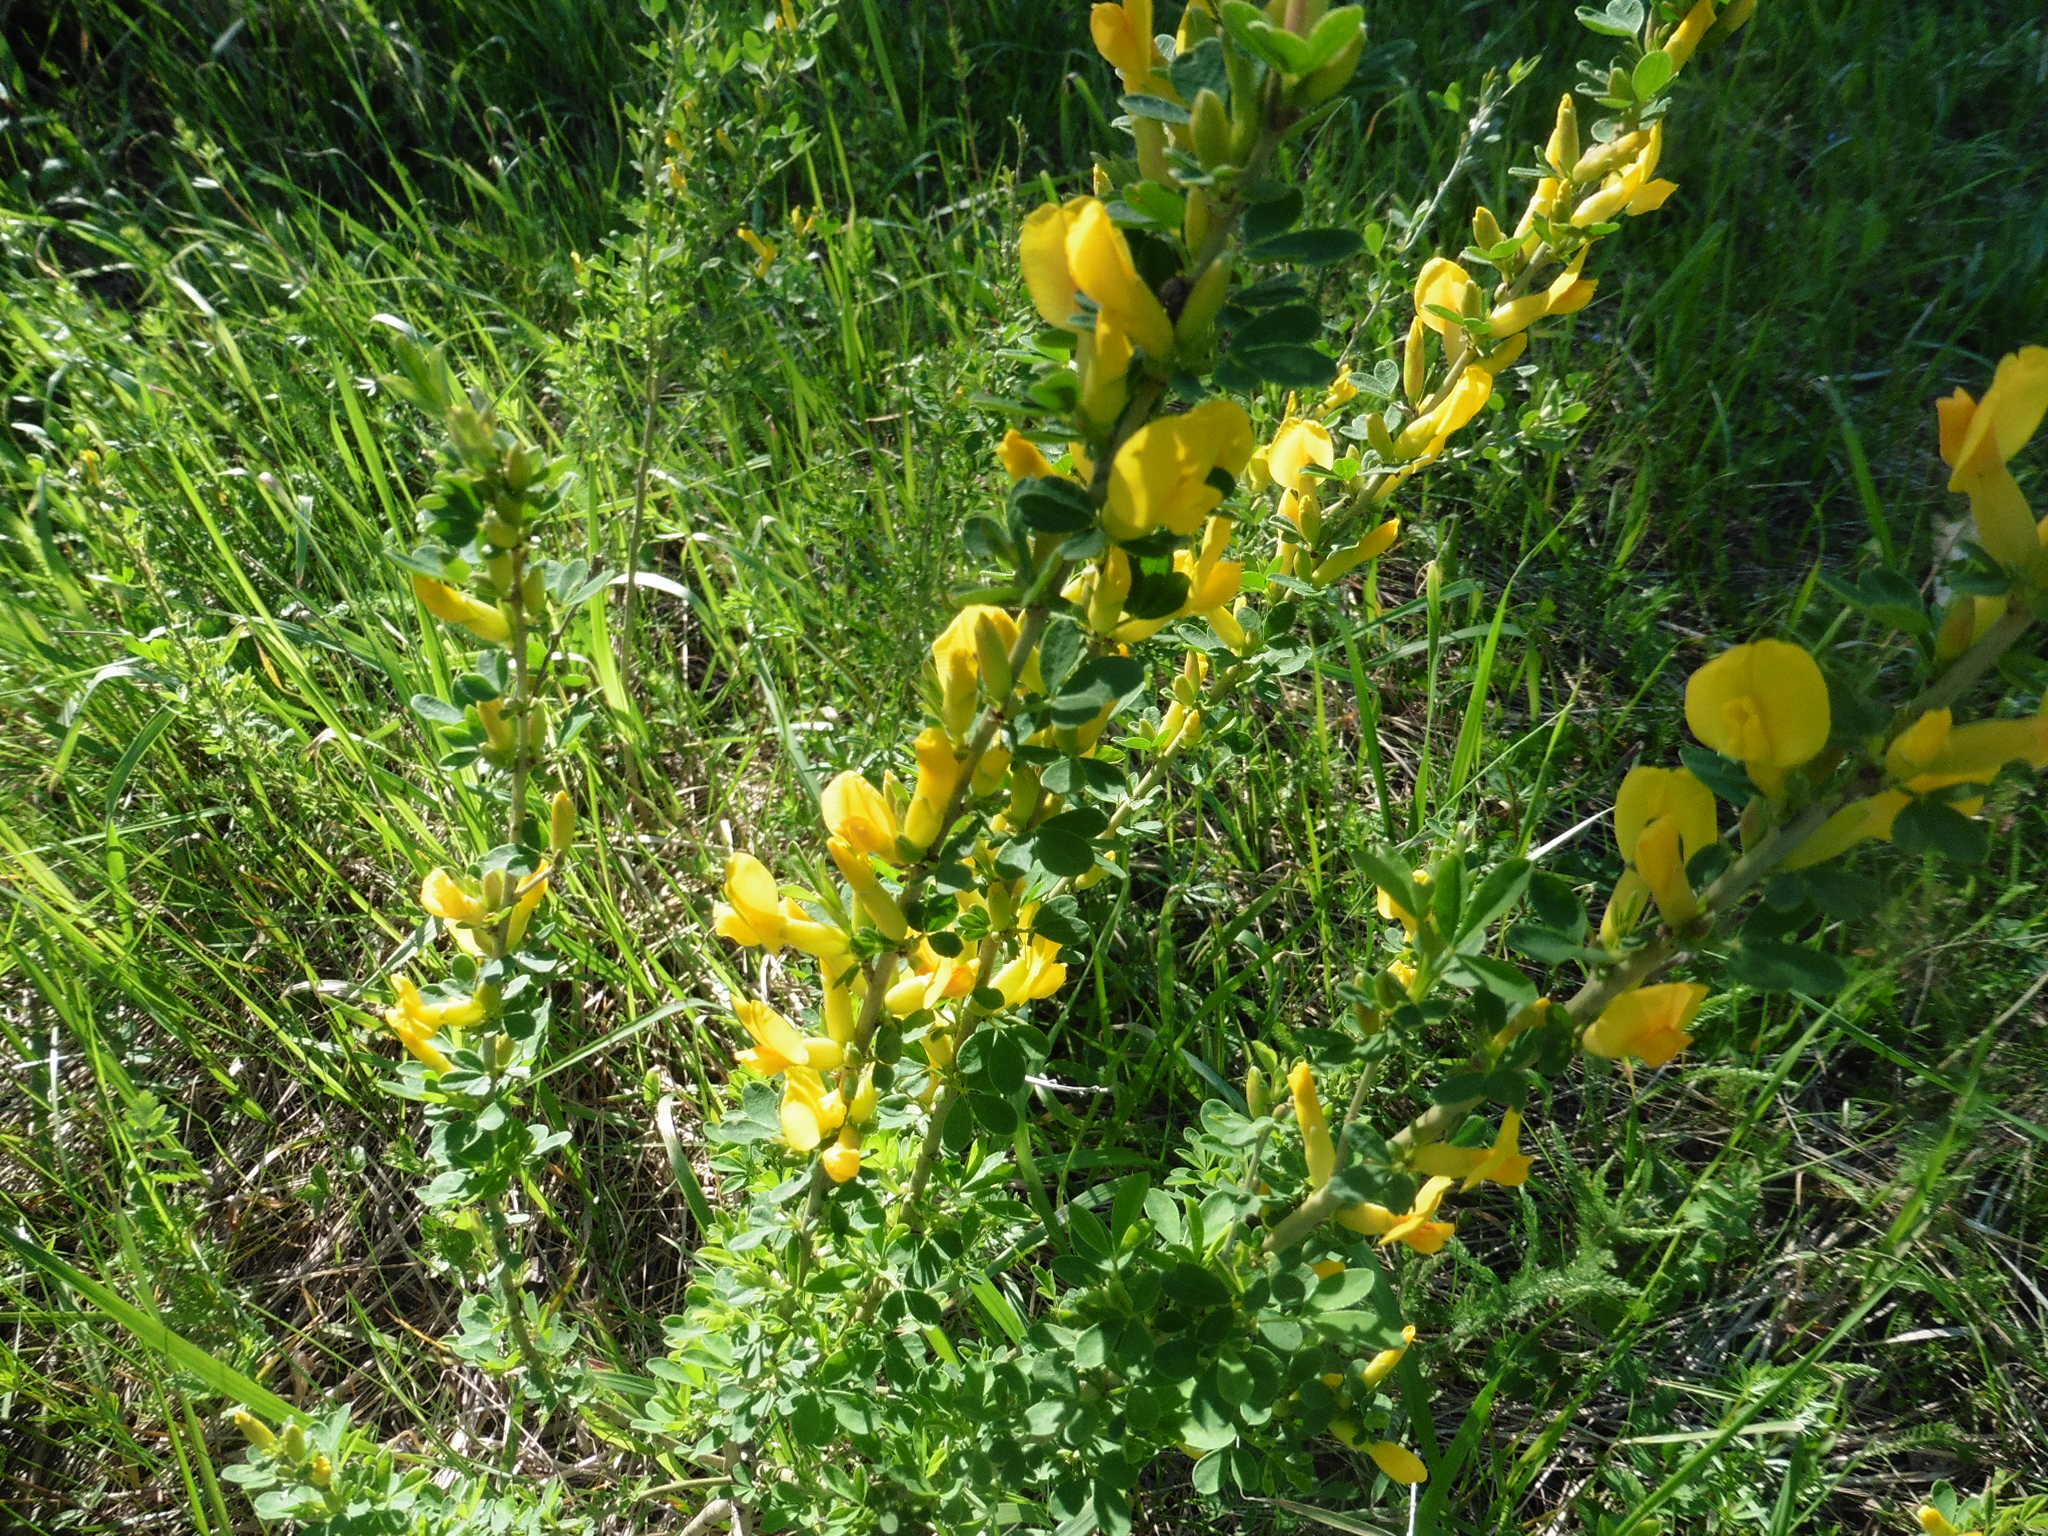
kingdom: Plantae
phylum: Tracheophyta
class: Magnoliopsida
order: Fabales
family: Fabaceae
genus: Chamaecytisus
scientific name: Chamaecytisus ruthenicus
